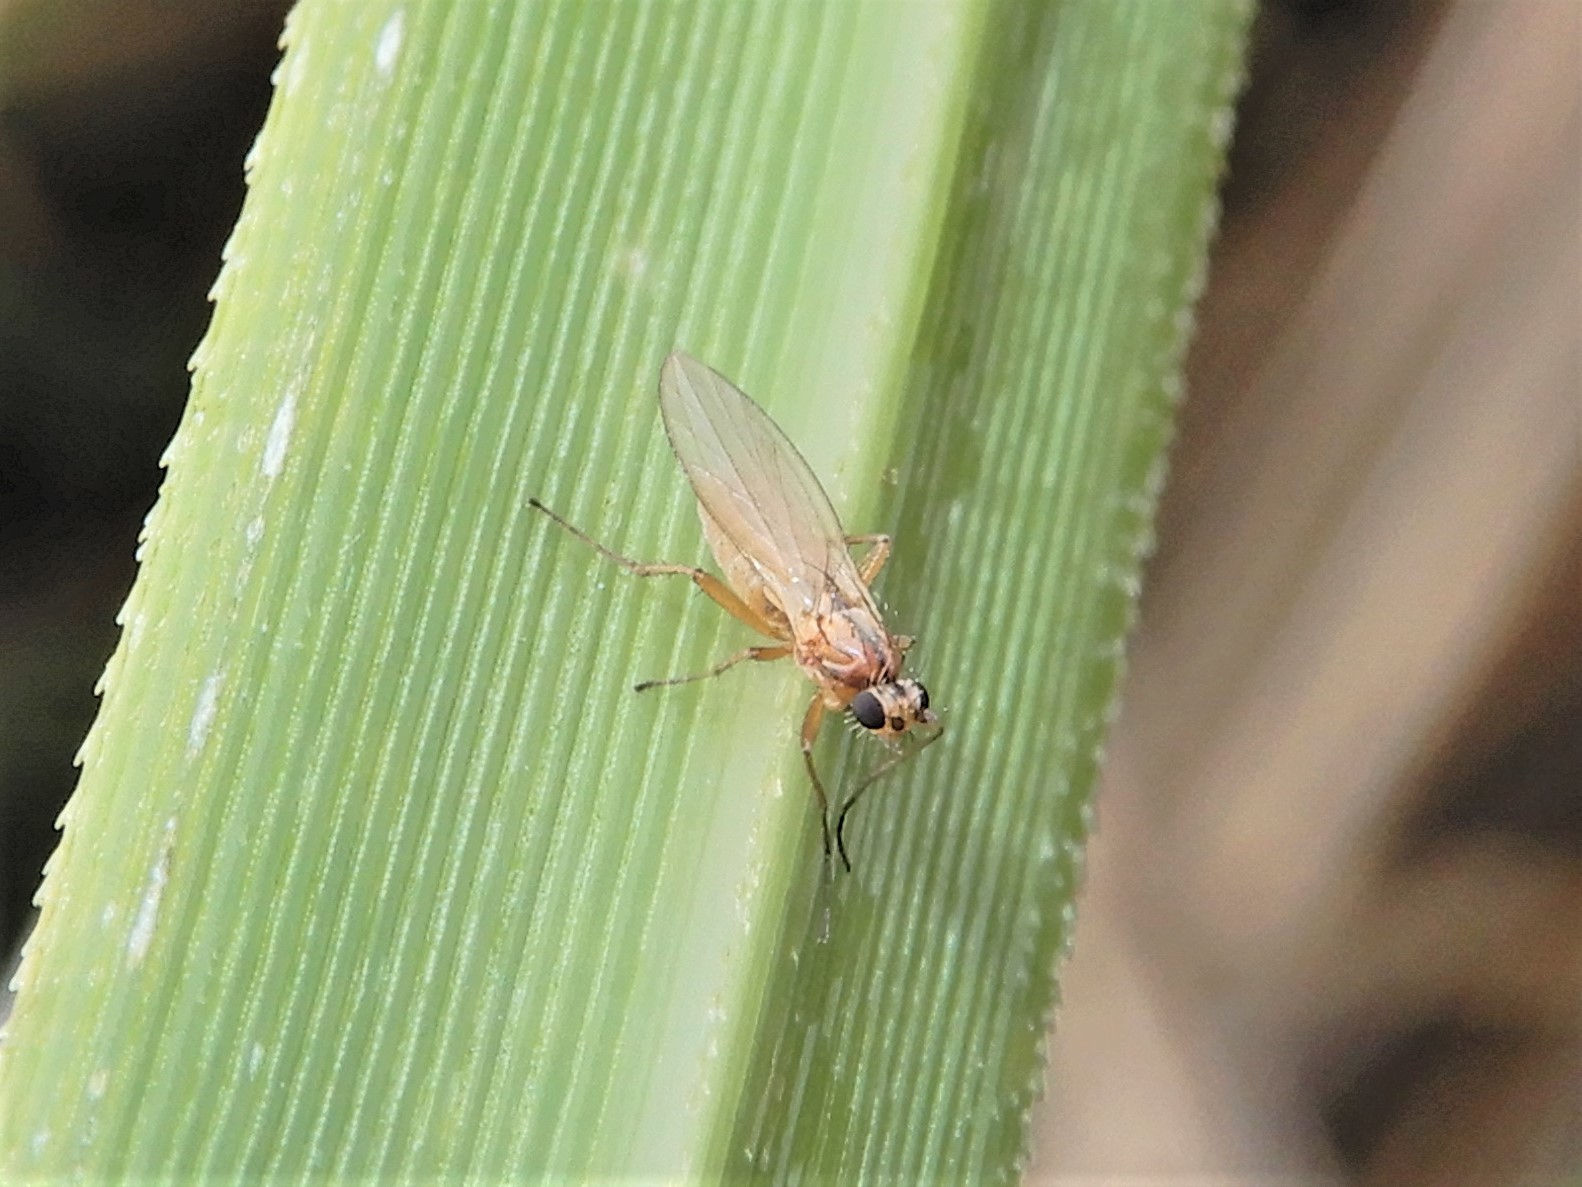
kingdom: Animalia
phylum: Arthropoda
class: Insecta
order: Diptera
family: Lonchopteridae
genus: Lonchoptera
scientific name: Lonchoptera bifurcata
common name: Spear-winged fly
